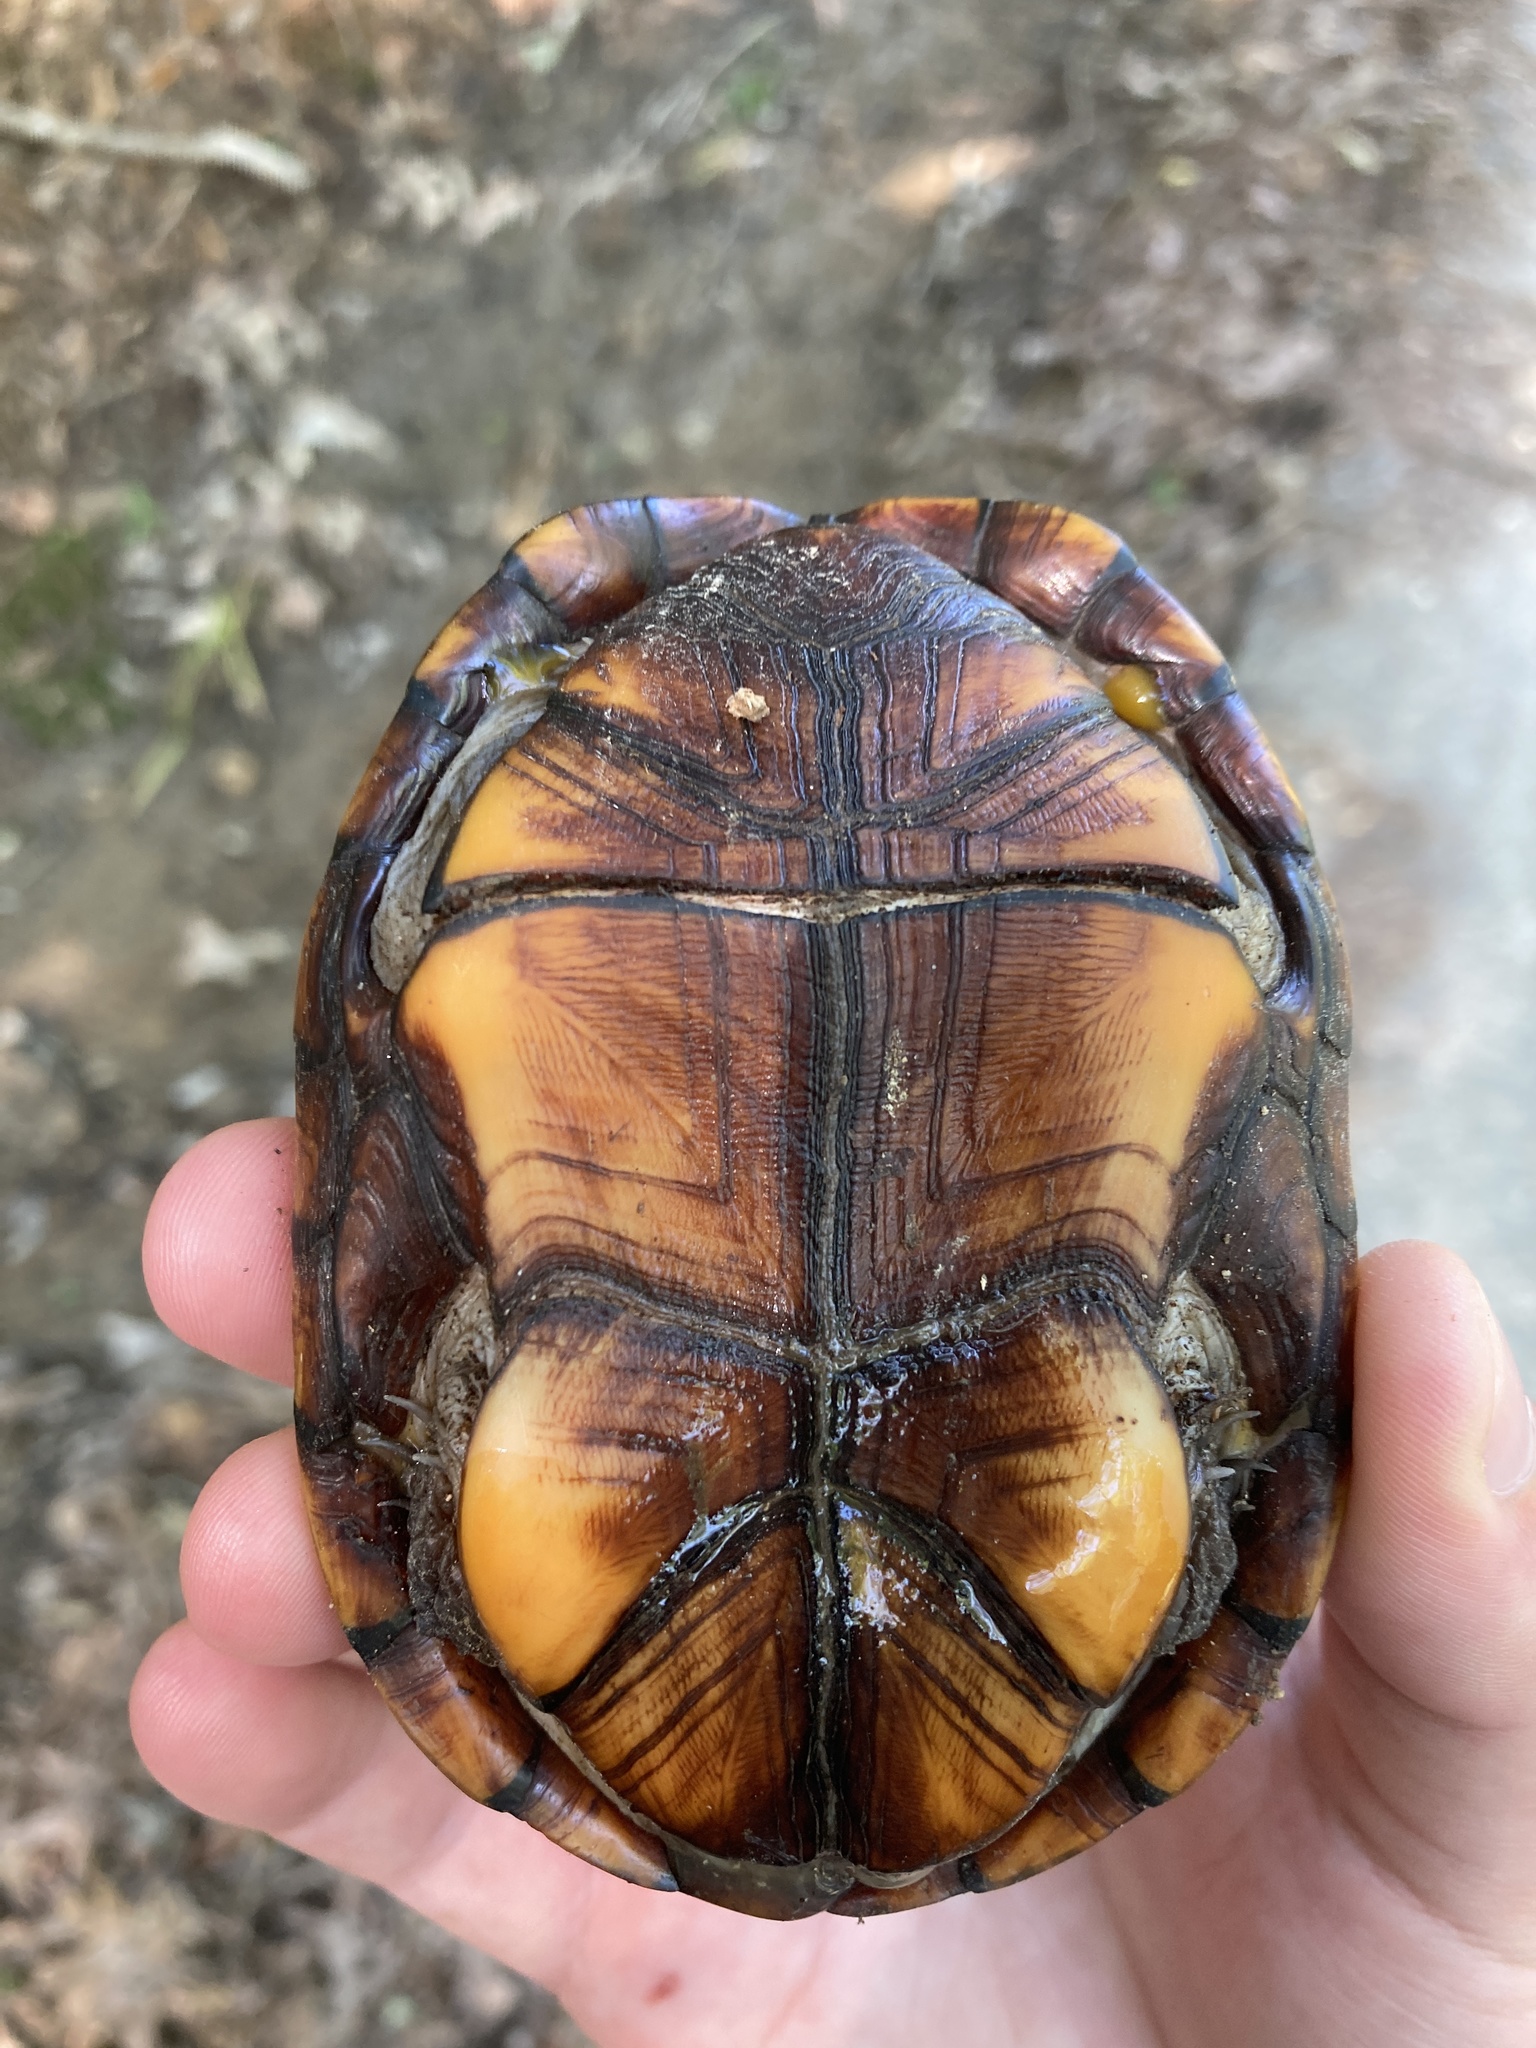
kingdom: Animalia
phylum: Chordata
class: Testudines
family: Kinosternidae
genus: Kinosternon
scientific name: Kinosternon subrubrum
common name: Eastern mud turtle
